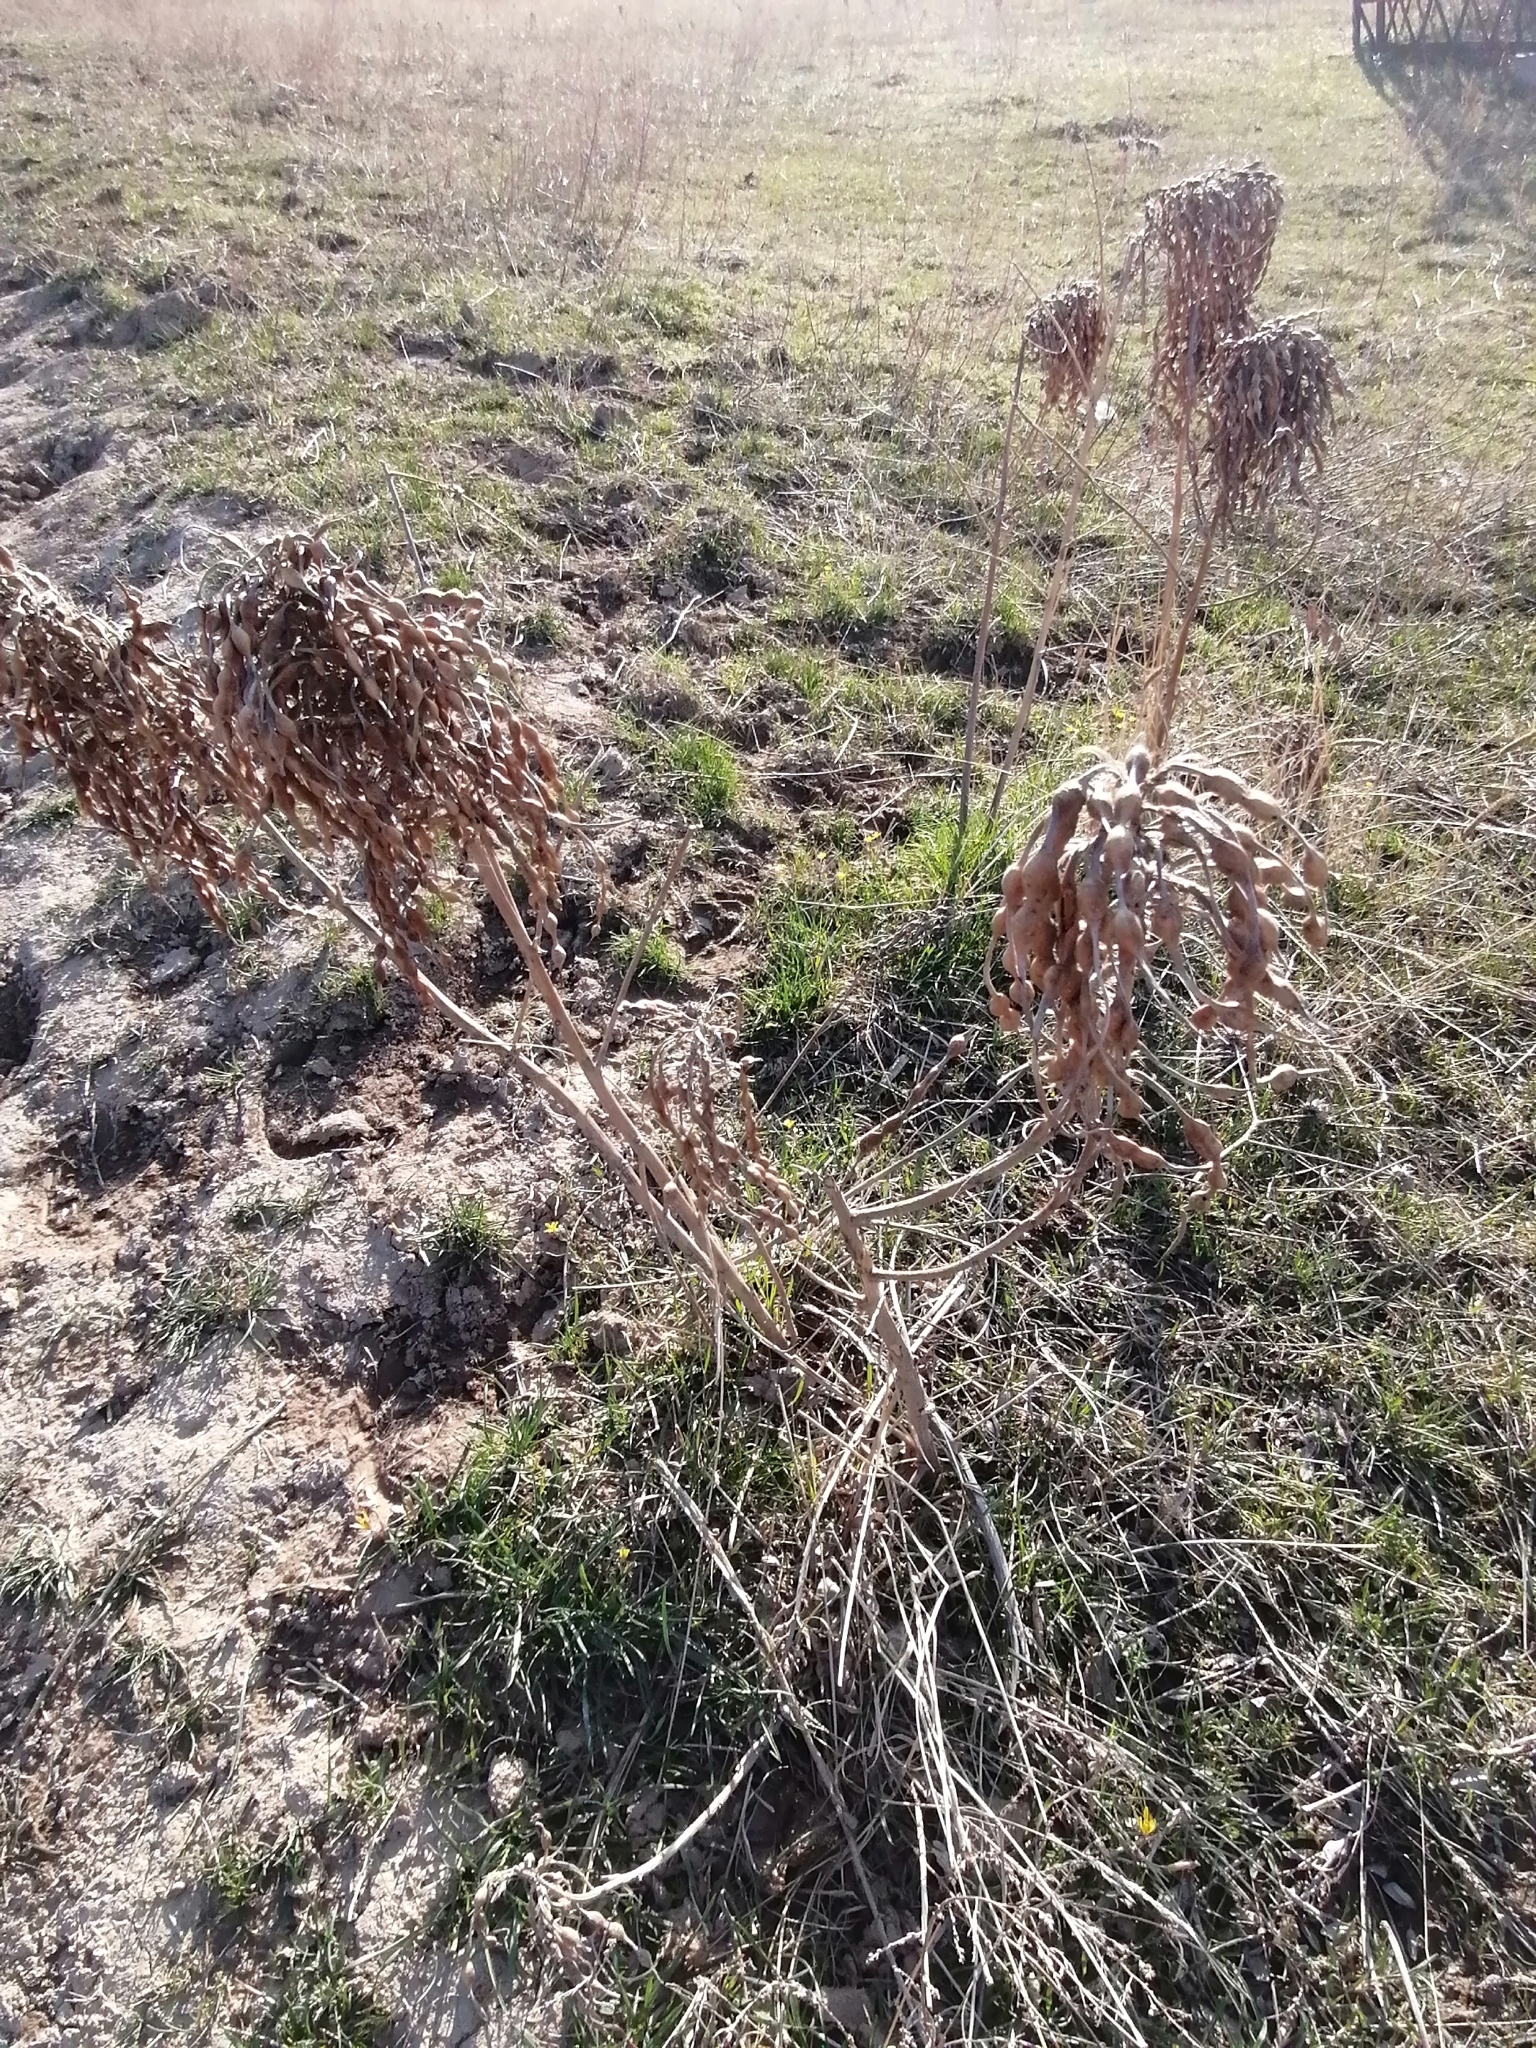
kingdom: Plantae
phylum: Tracheophyta
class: Magnoliopsida
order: Fabales
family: Fabaceae
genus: Sophora
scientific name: Sophora alopecuroides
